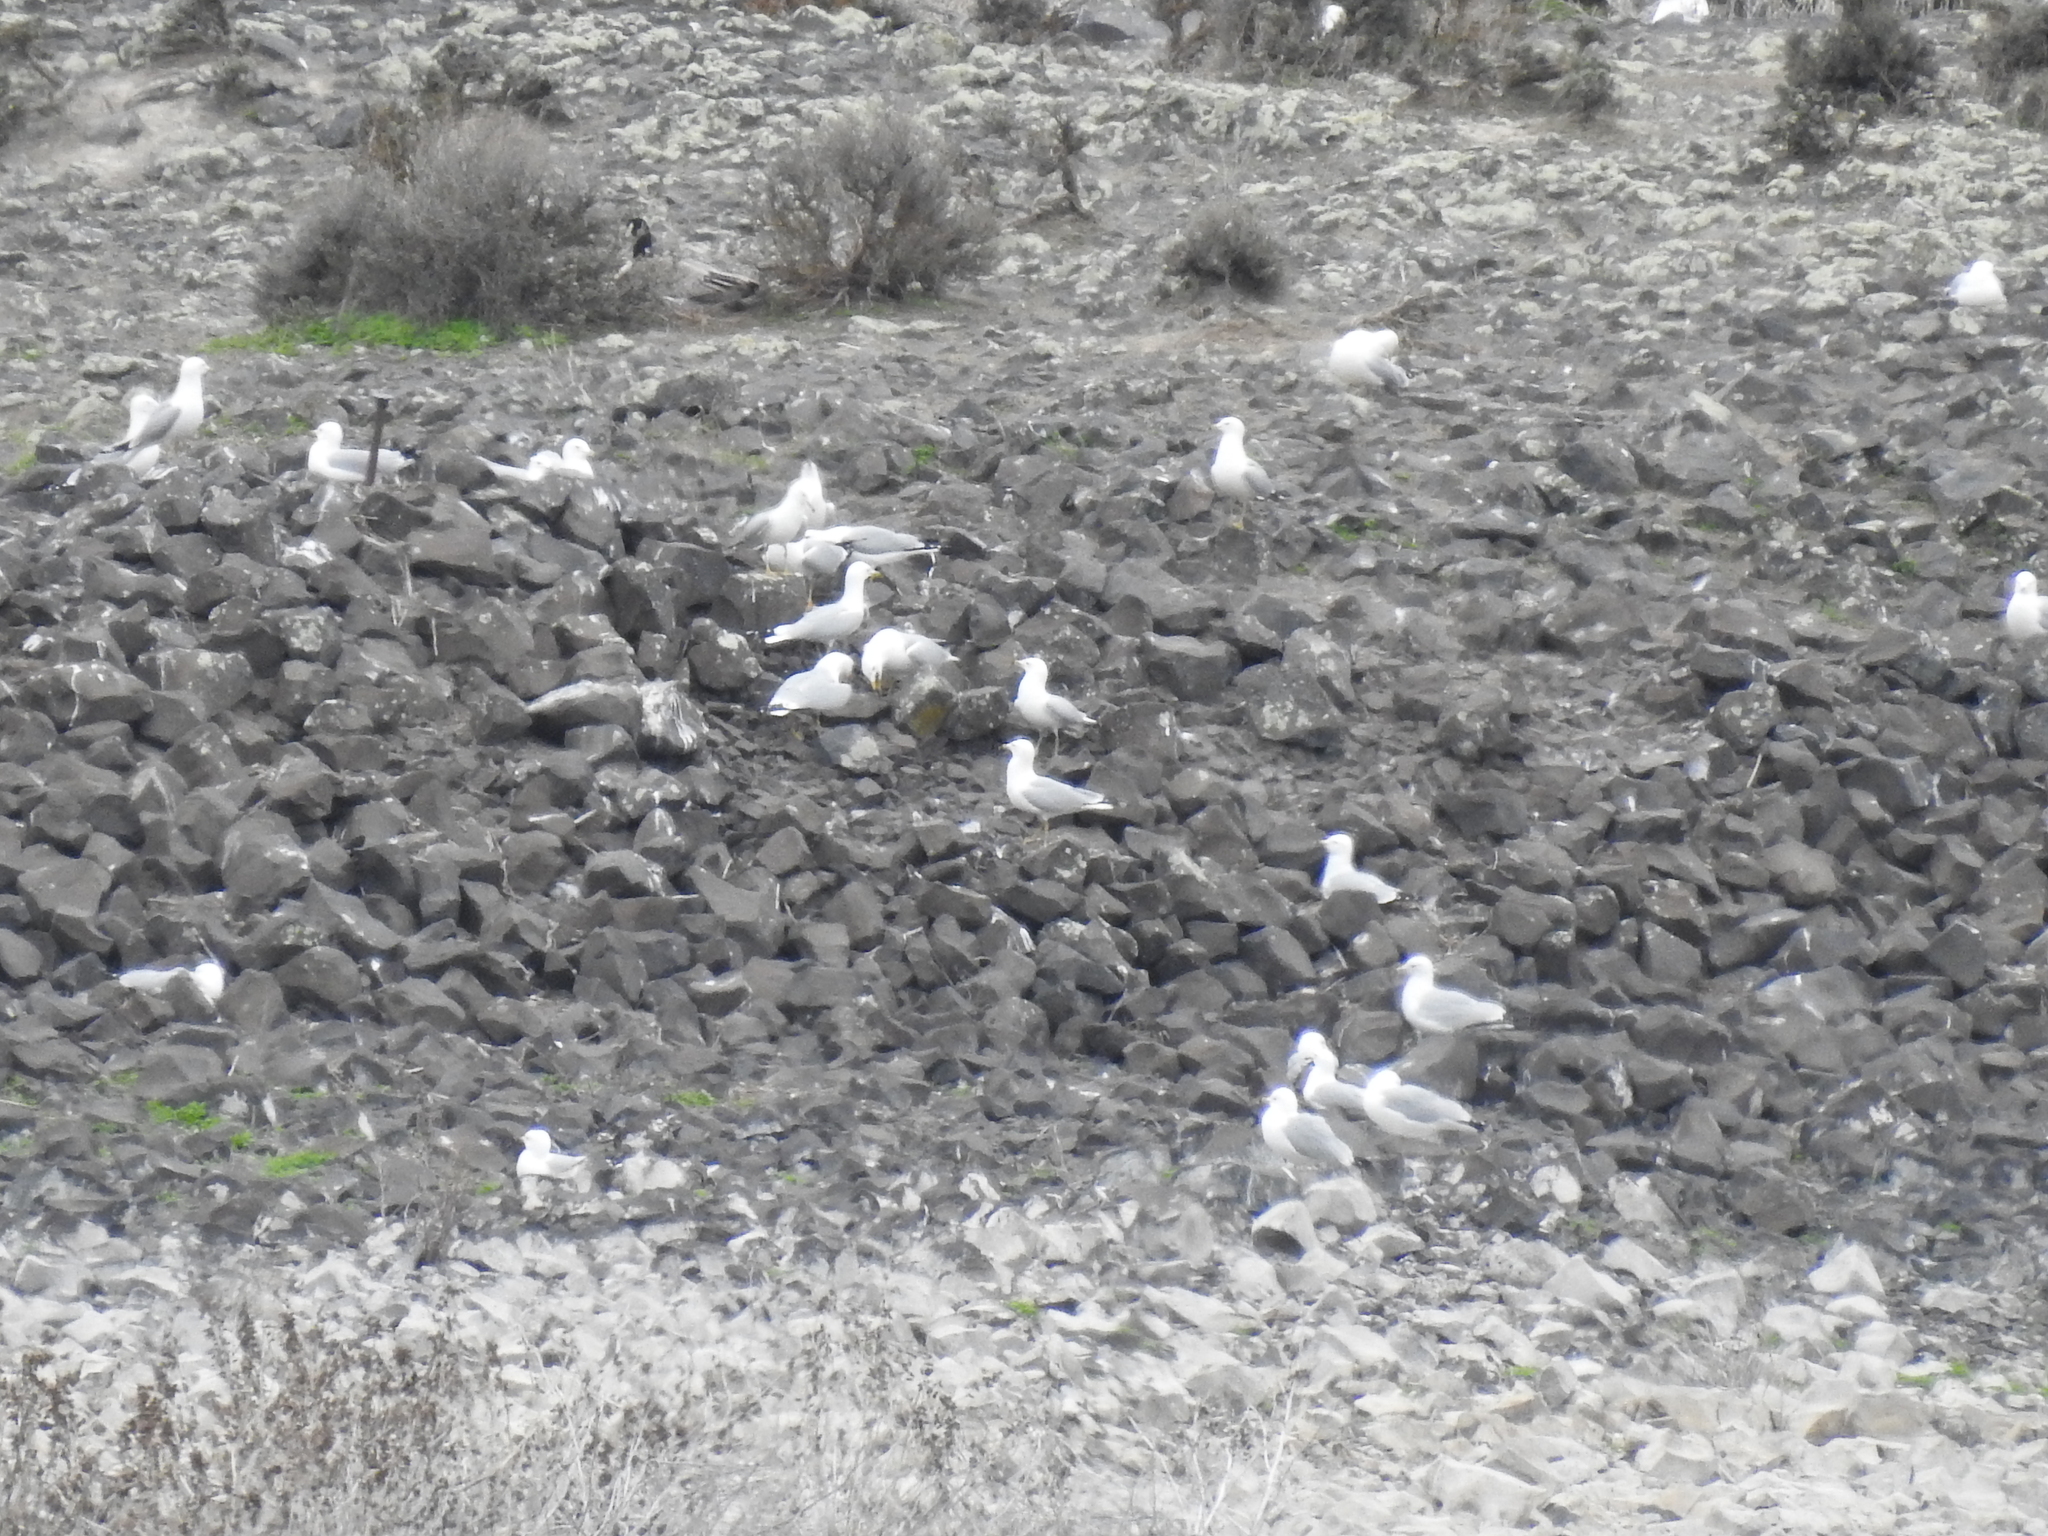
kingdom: Animalia
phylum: Chordata
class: Aves
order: Charadriiformes
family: Laridae
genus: Larus
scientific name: Larus delawarensis
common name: Ring-billed gull
